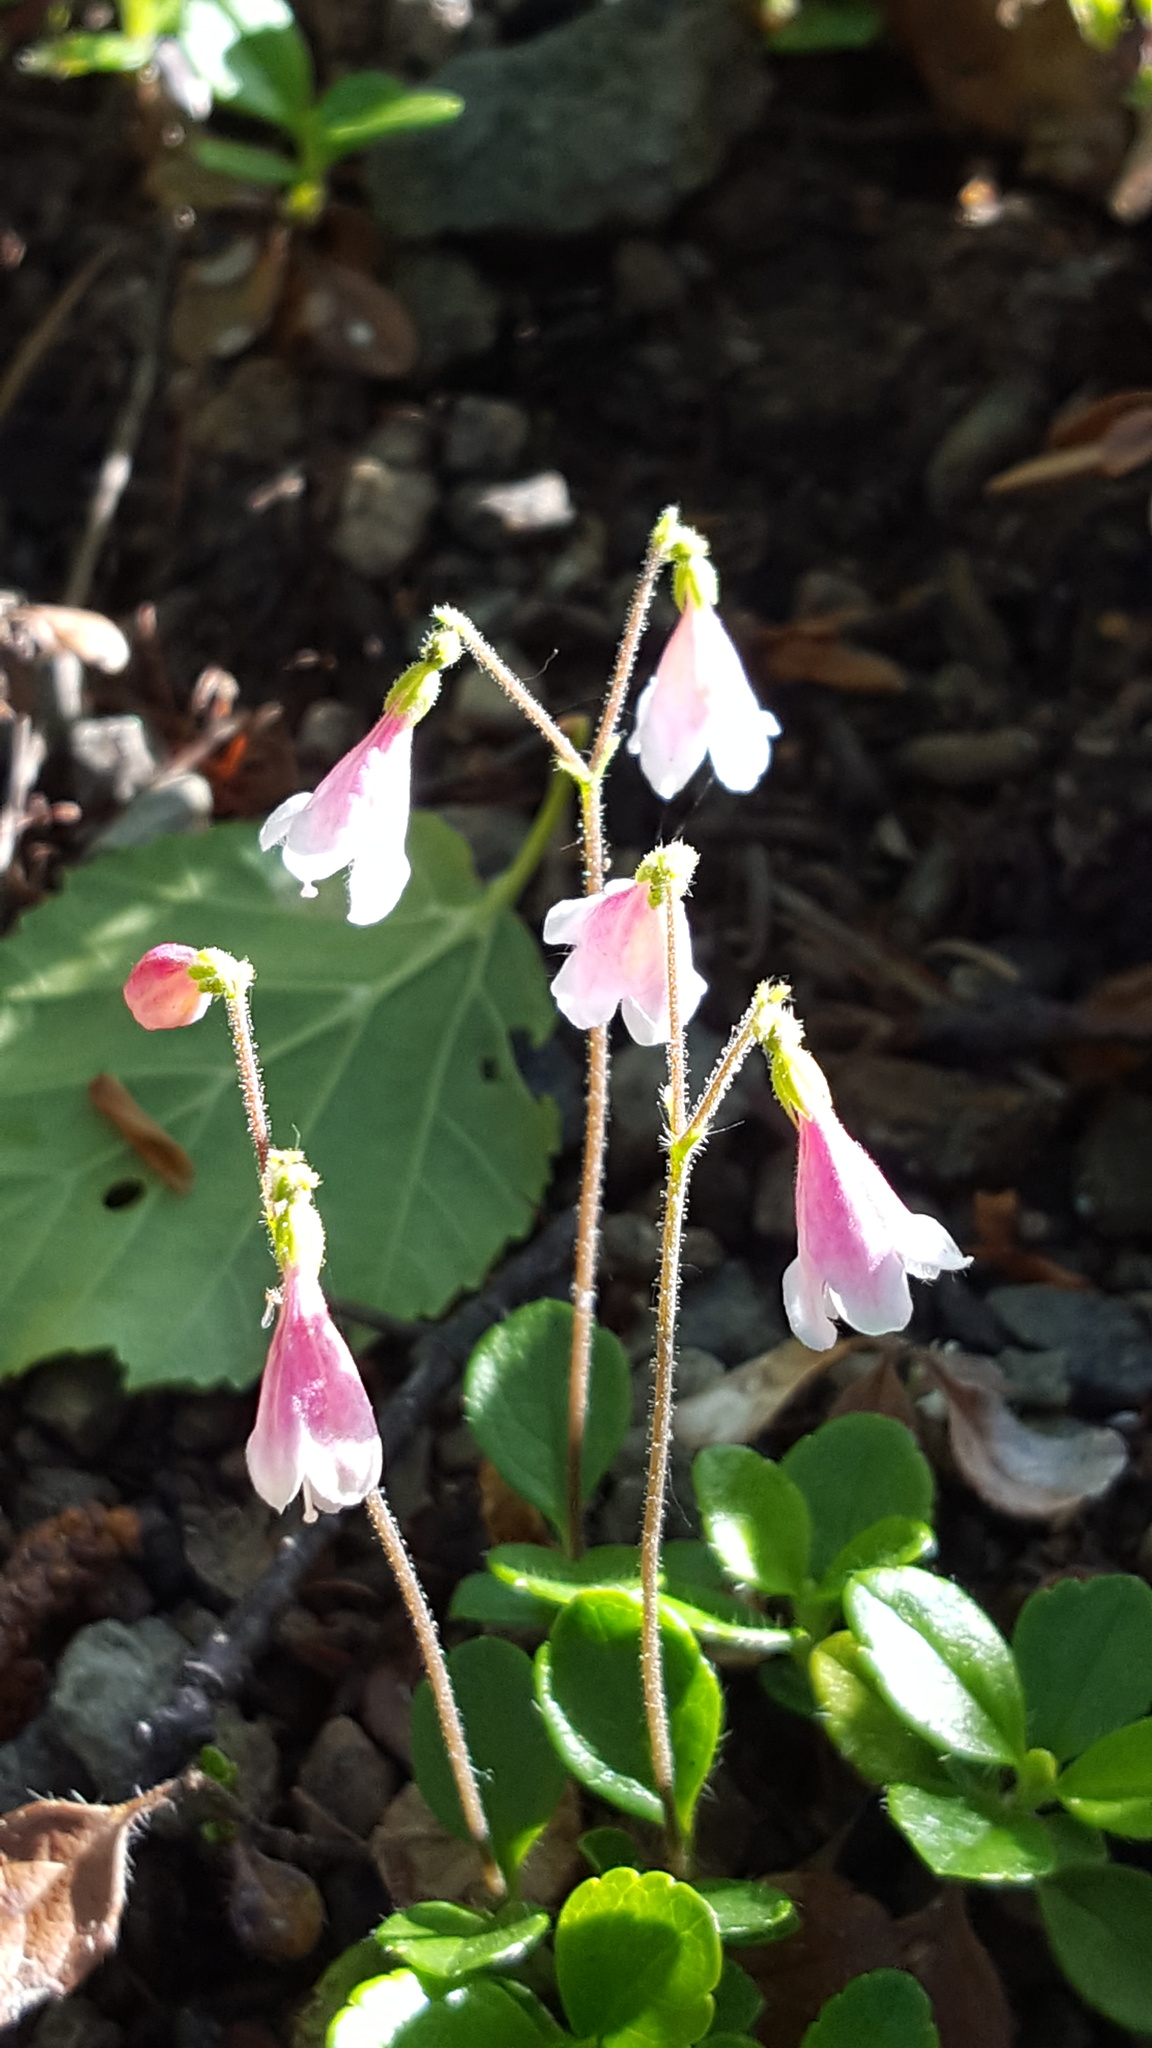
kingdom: Plantae
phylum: Tracheophyta
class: Magnoliopsida
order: Dipsacales
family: Caprifoliaceae
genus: Linnaea
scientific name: Linnaea borealis
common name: Twinflower
